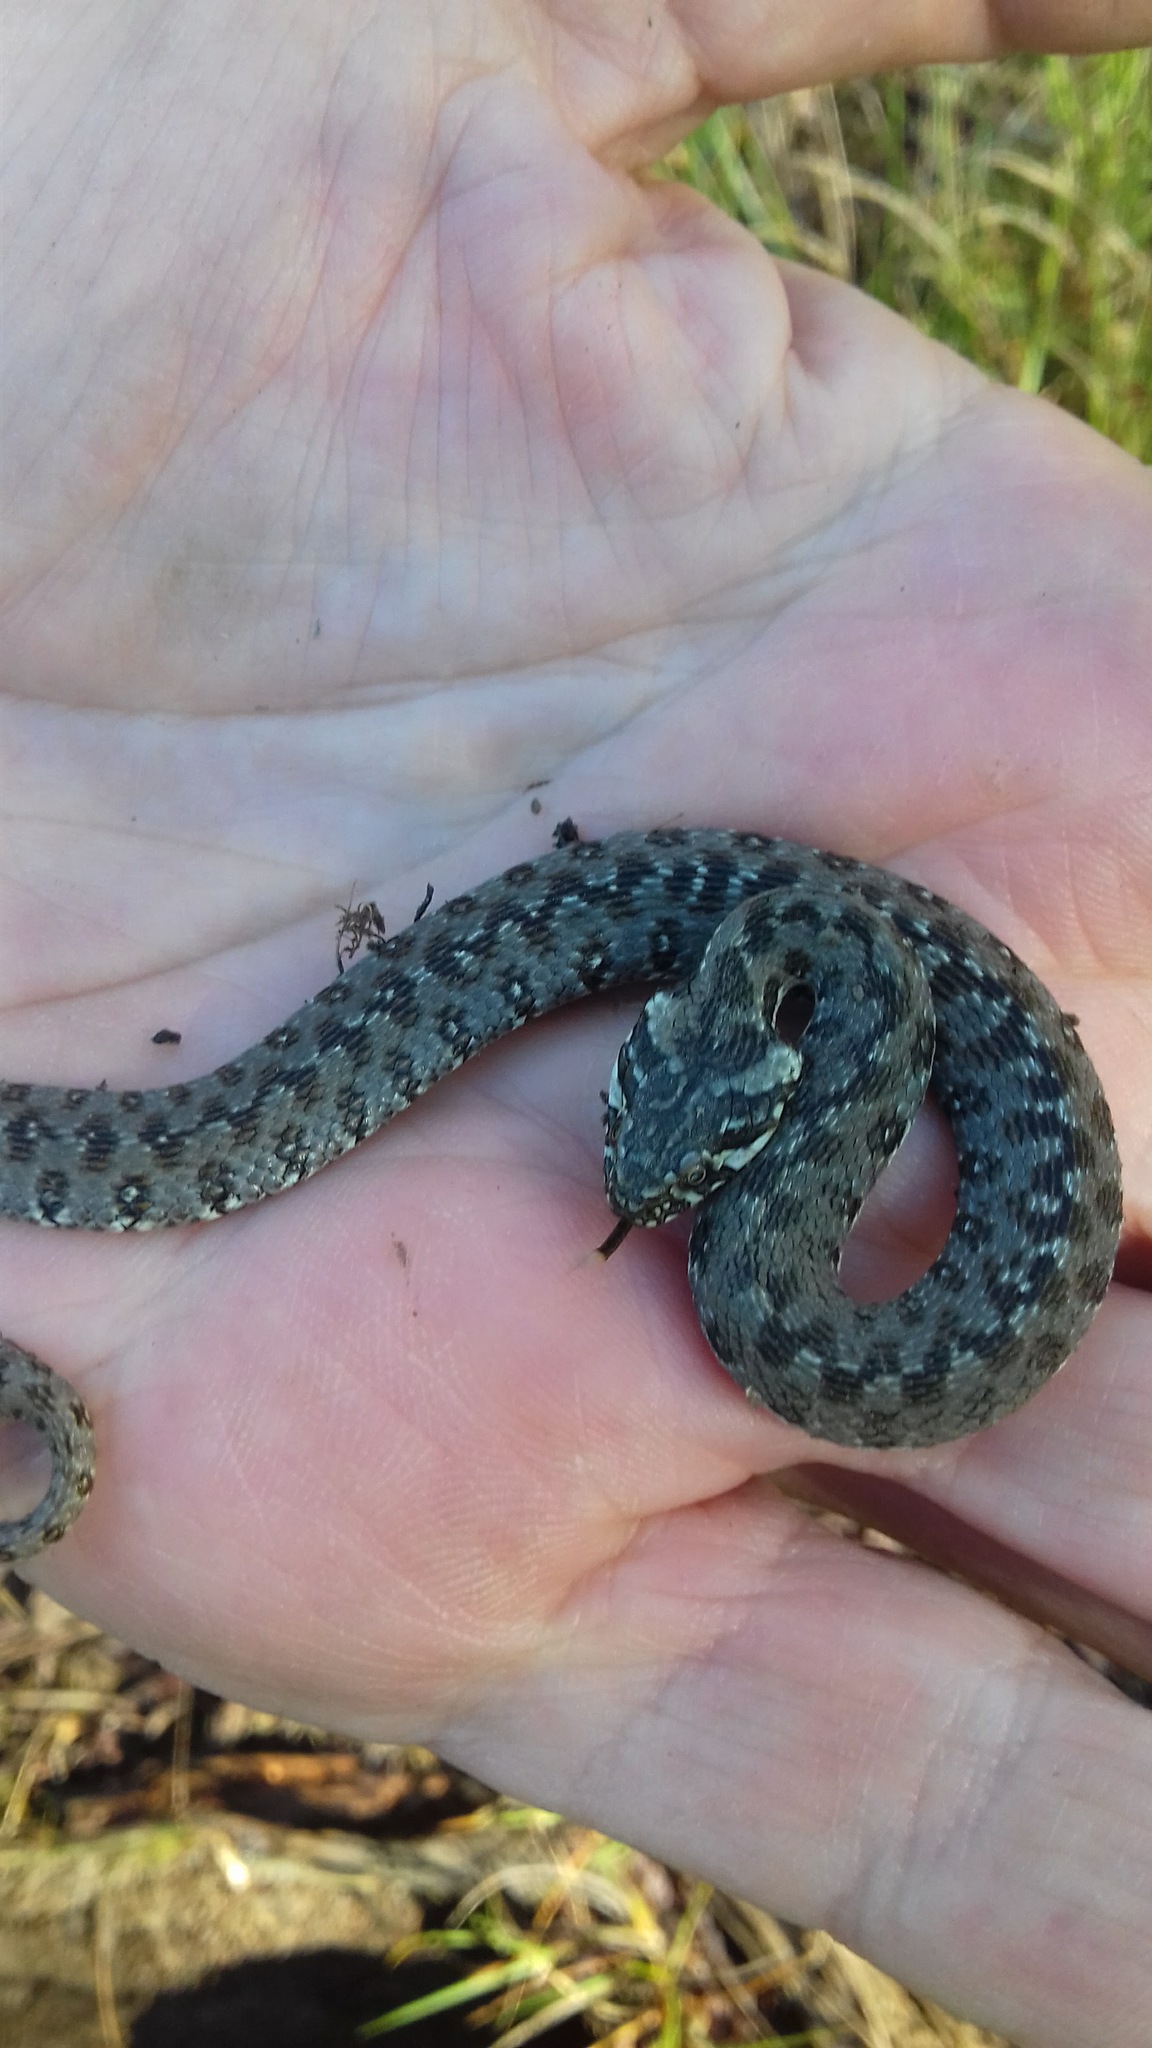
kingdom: Animalia
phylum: Chordata
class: Squamata
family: Colubridae
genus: Natrix
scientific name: Natrix maura
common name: Viperine water snake
